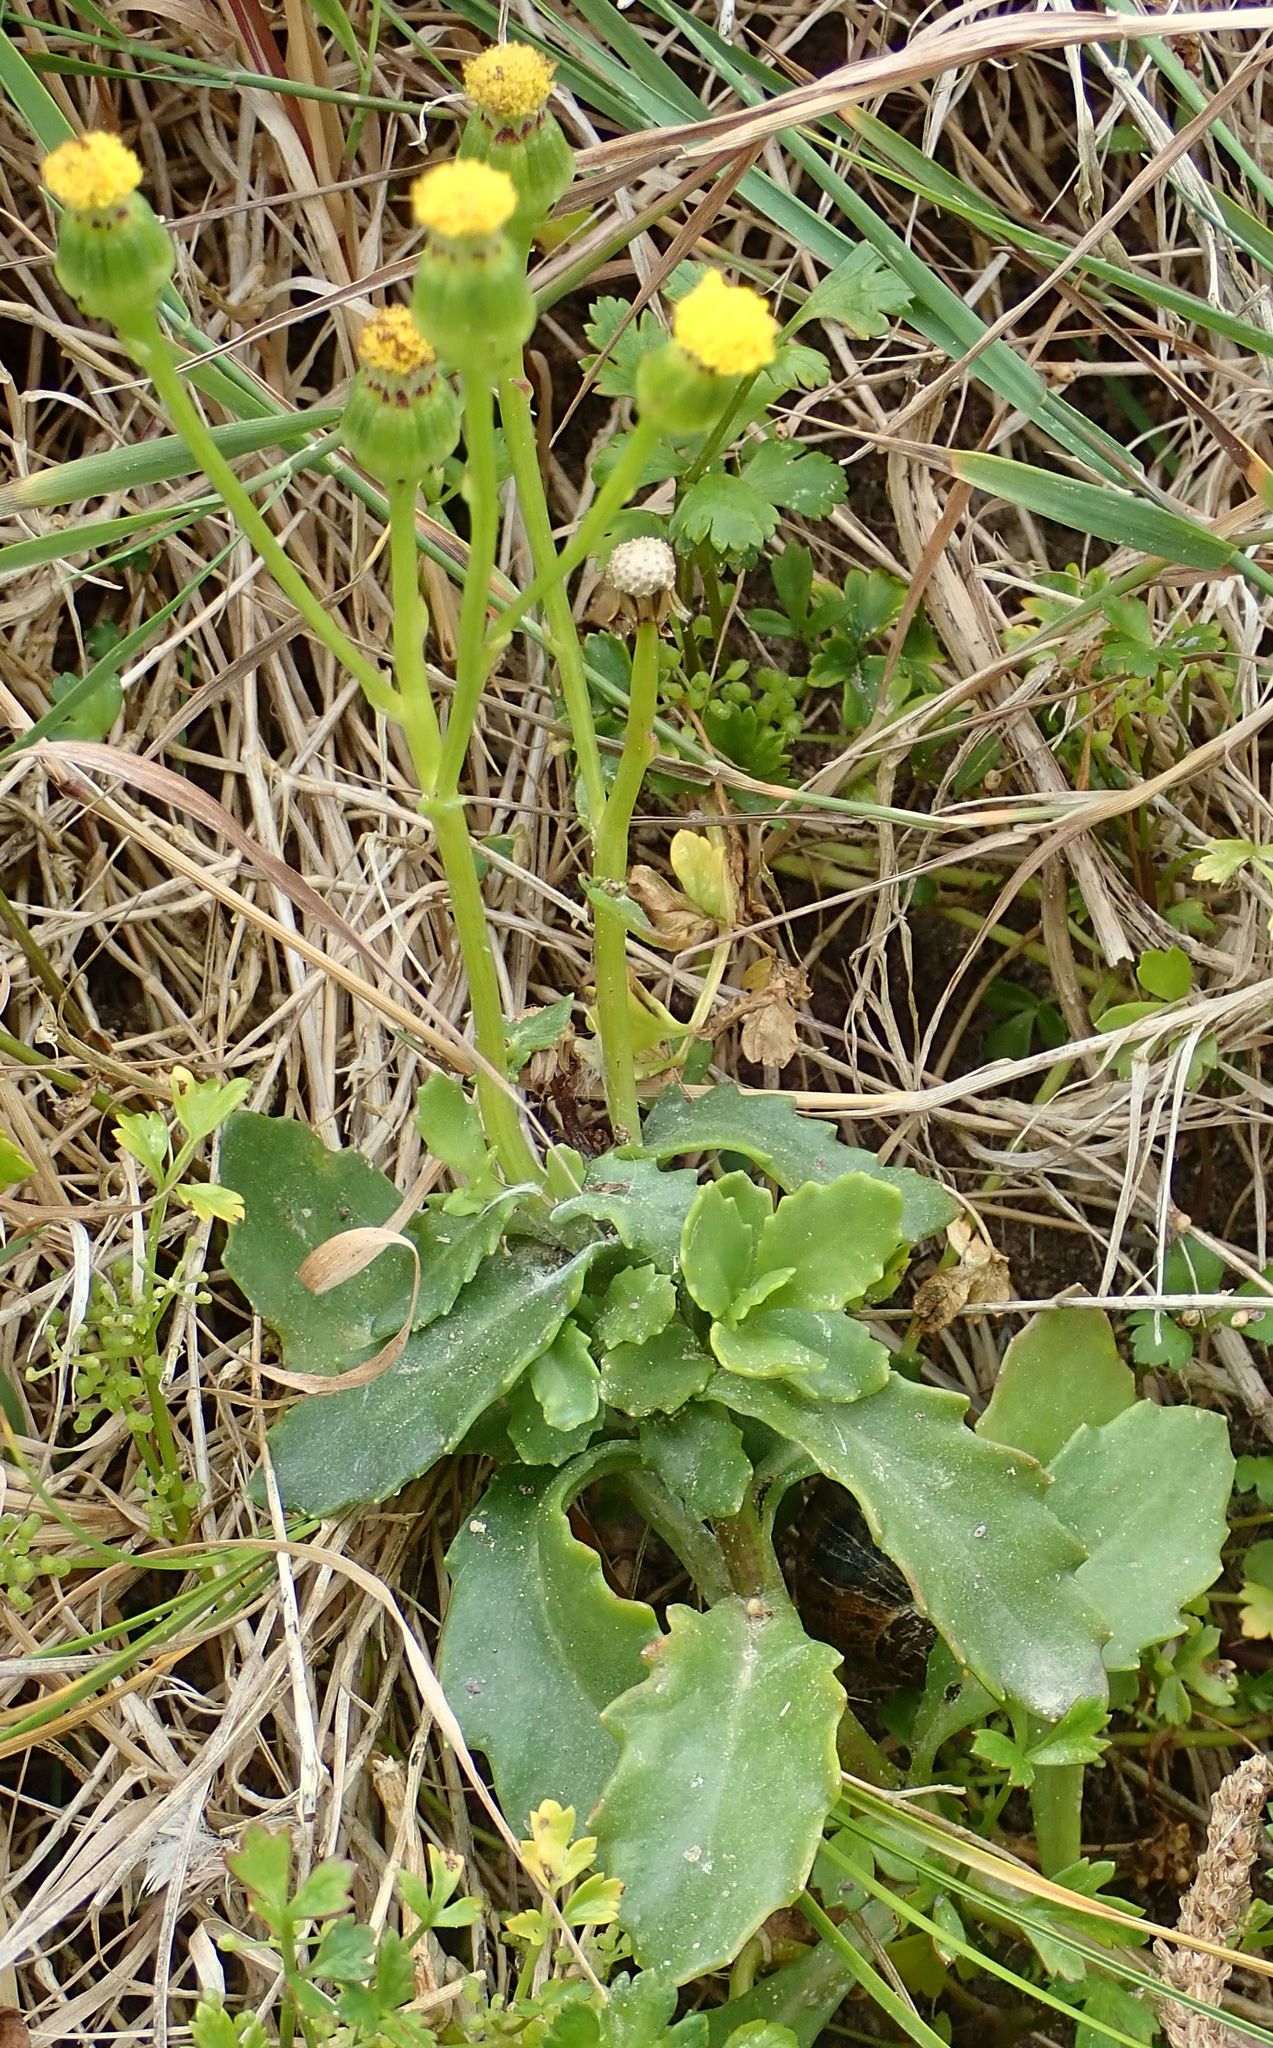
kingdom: Plantae
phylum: Tracheophyta
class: Magnoliopsida
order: Asterales
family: Asteraceae
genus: Senecio
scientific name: Senecio matatini
